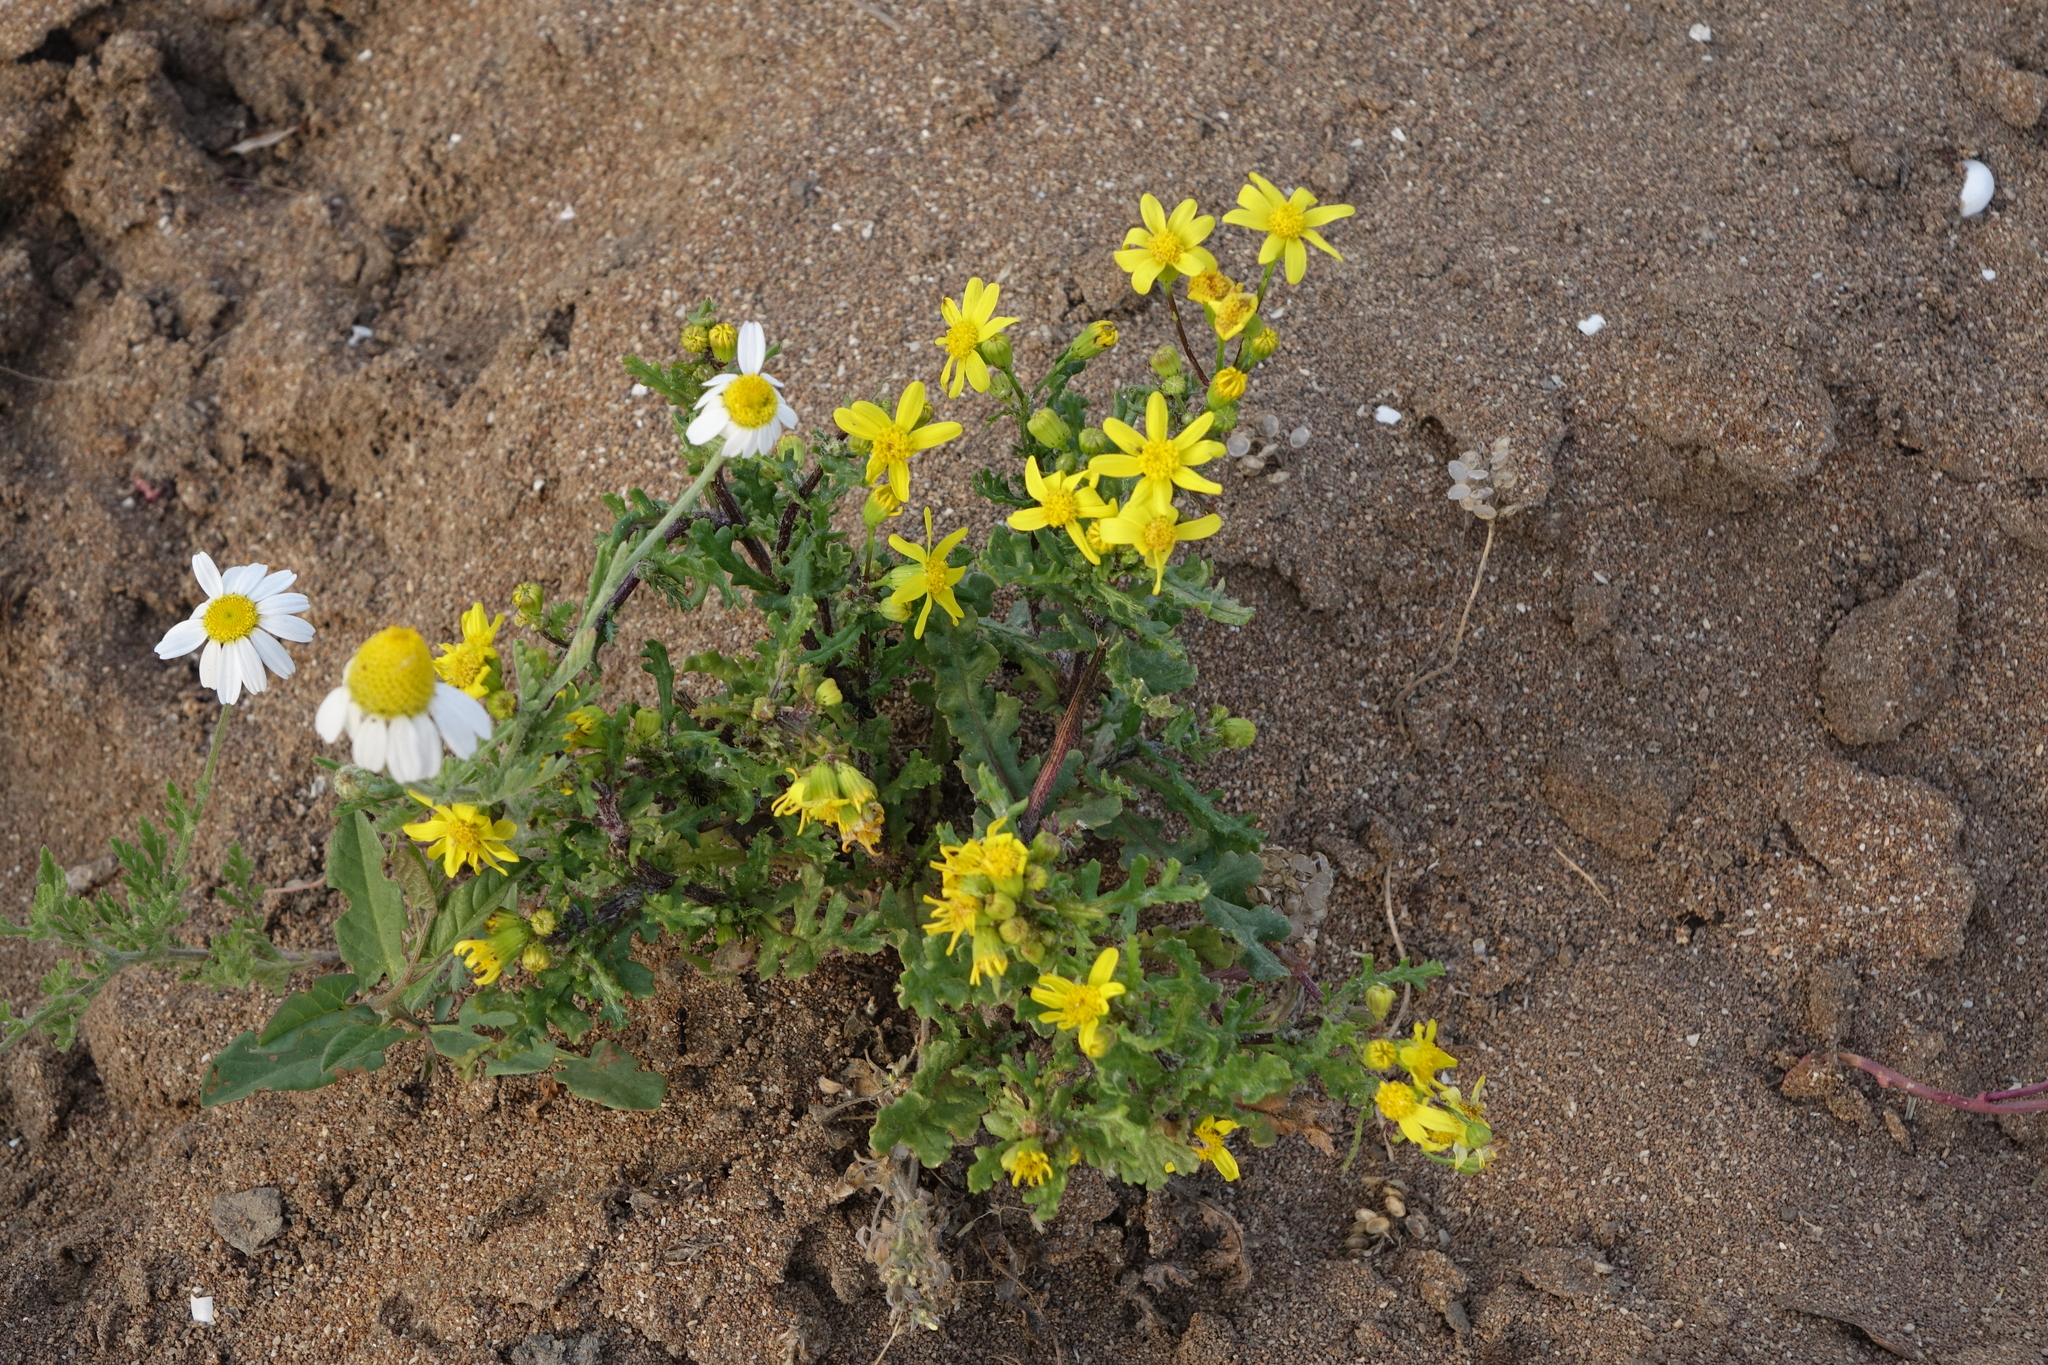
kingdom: Plantae
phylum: Tracheophyta
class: Magnoliopsida
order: Asterales
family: Asteraceae
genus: Senecio
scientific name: Senecio vernalis
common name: Eastern groundsel
